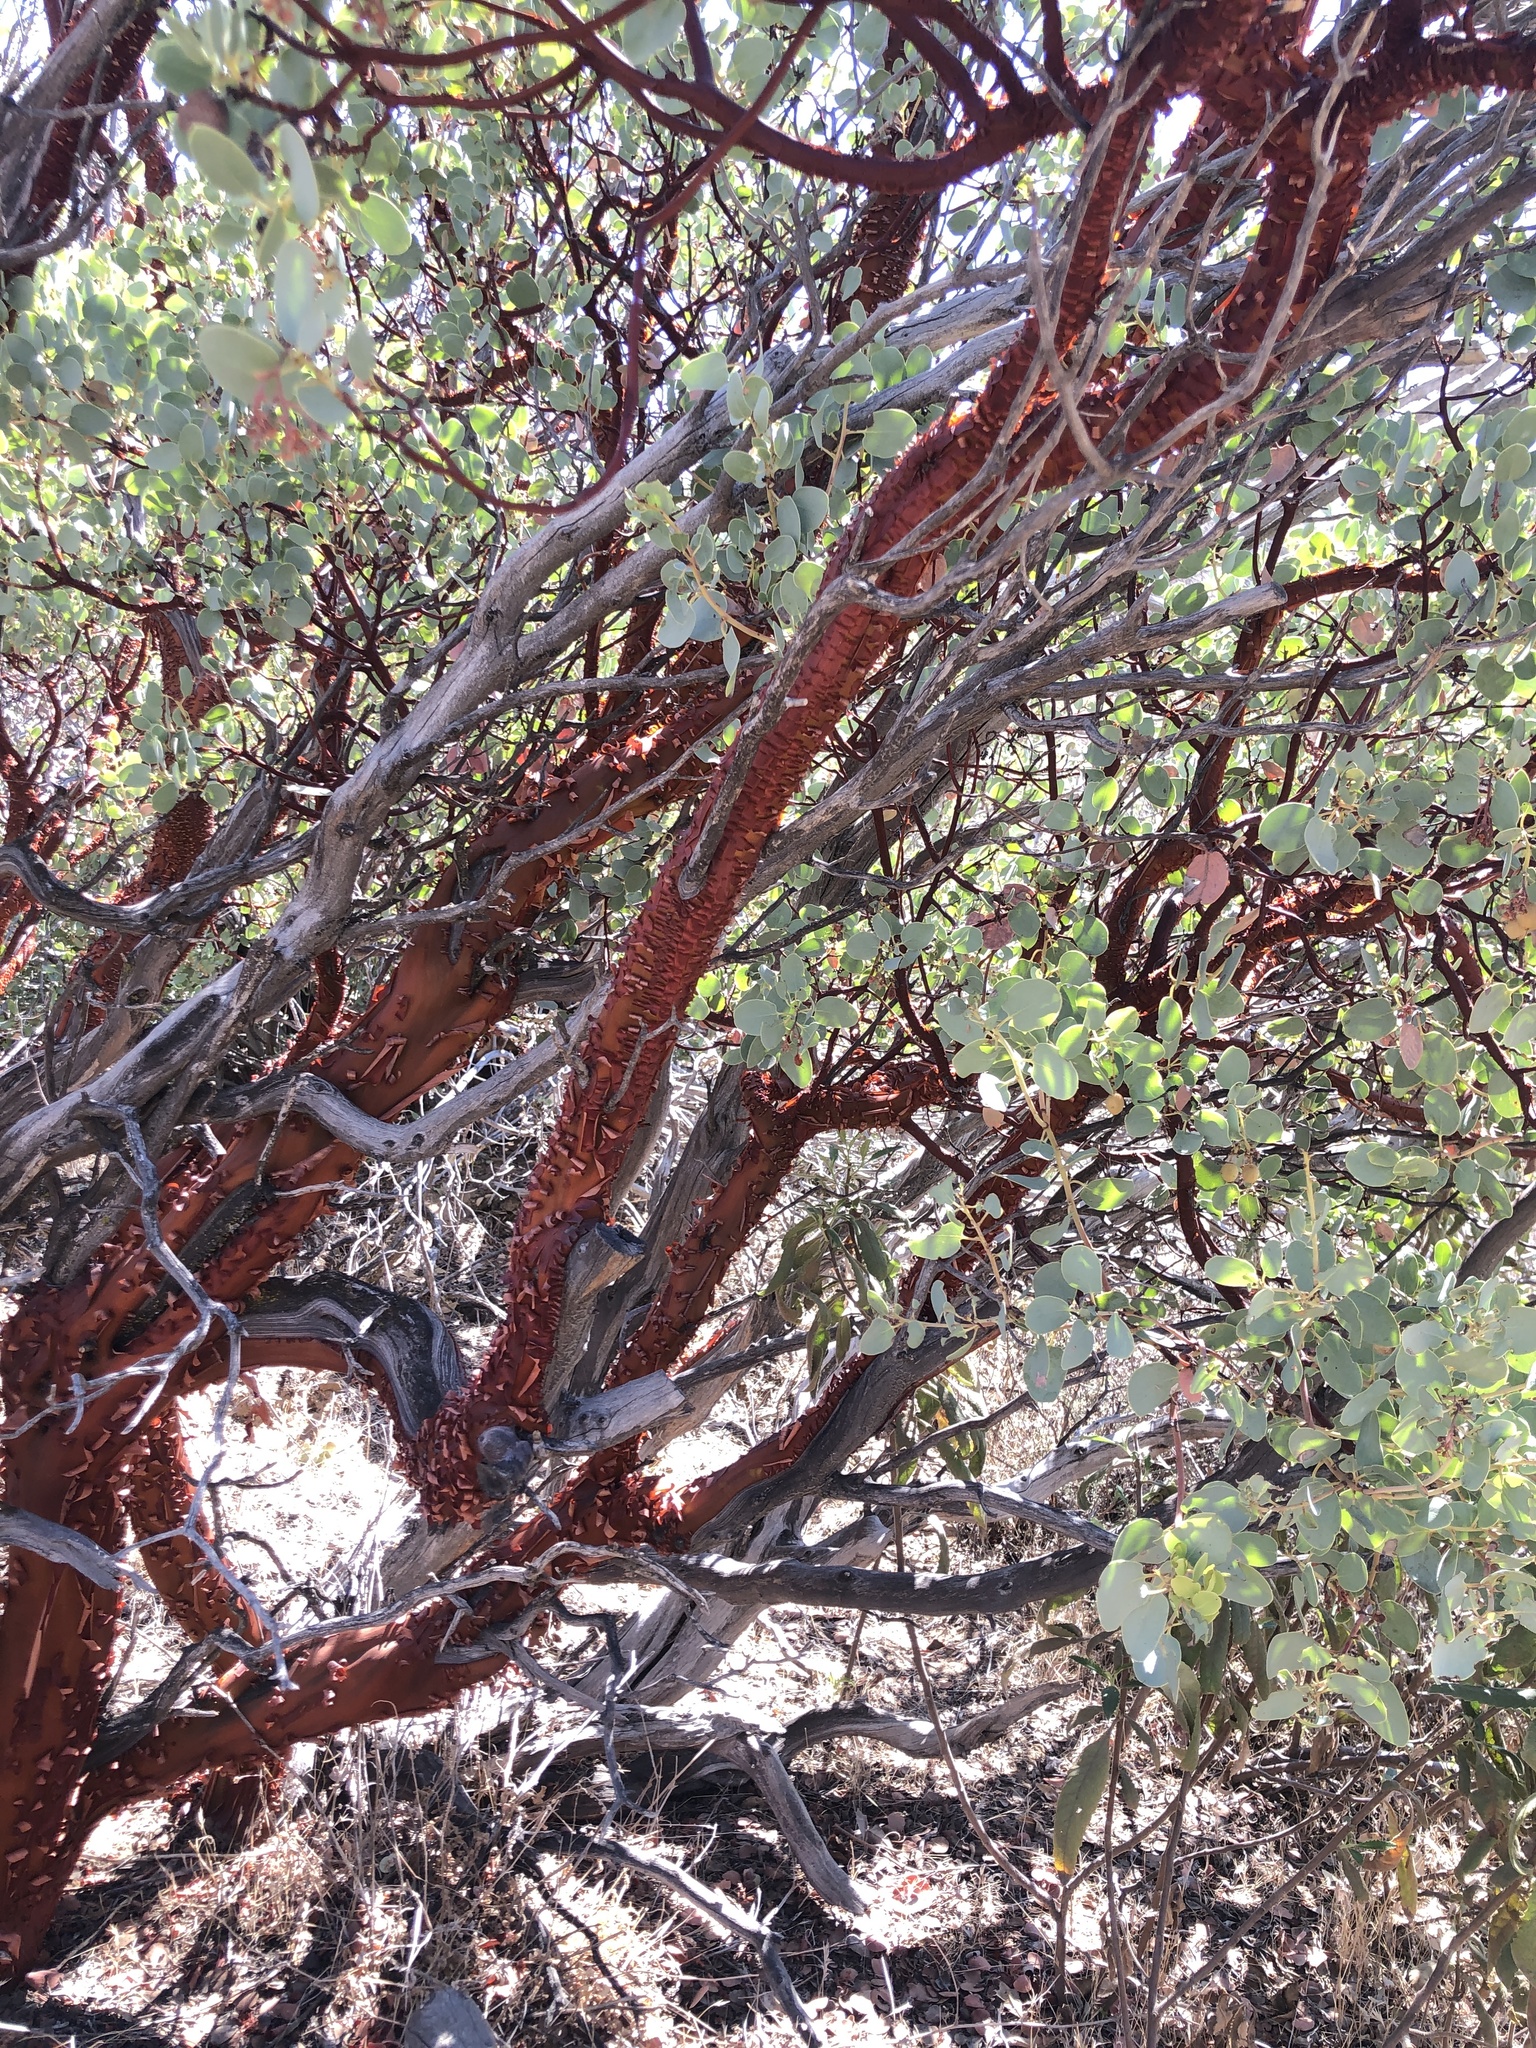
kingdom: Plantae
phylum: Tracheophyta
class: Magnoliopsida
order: Ericales
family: Ericaceae
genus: Arctostaphylos
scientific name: Arctostaphylos glauca
